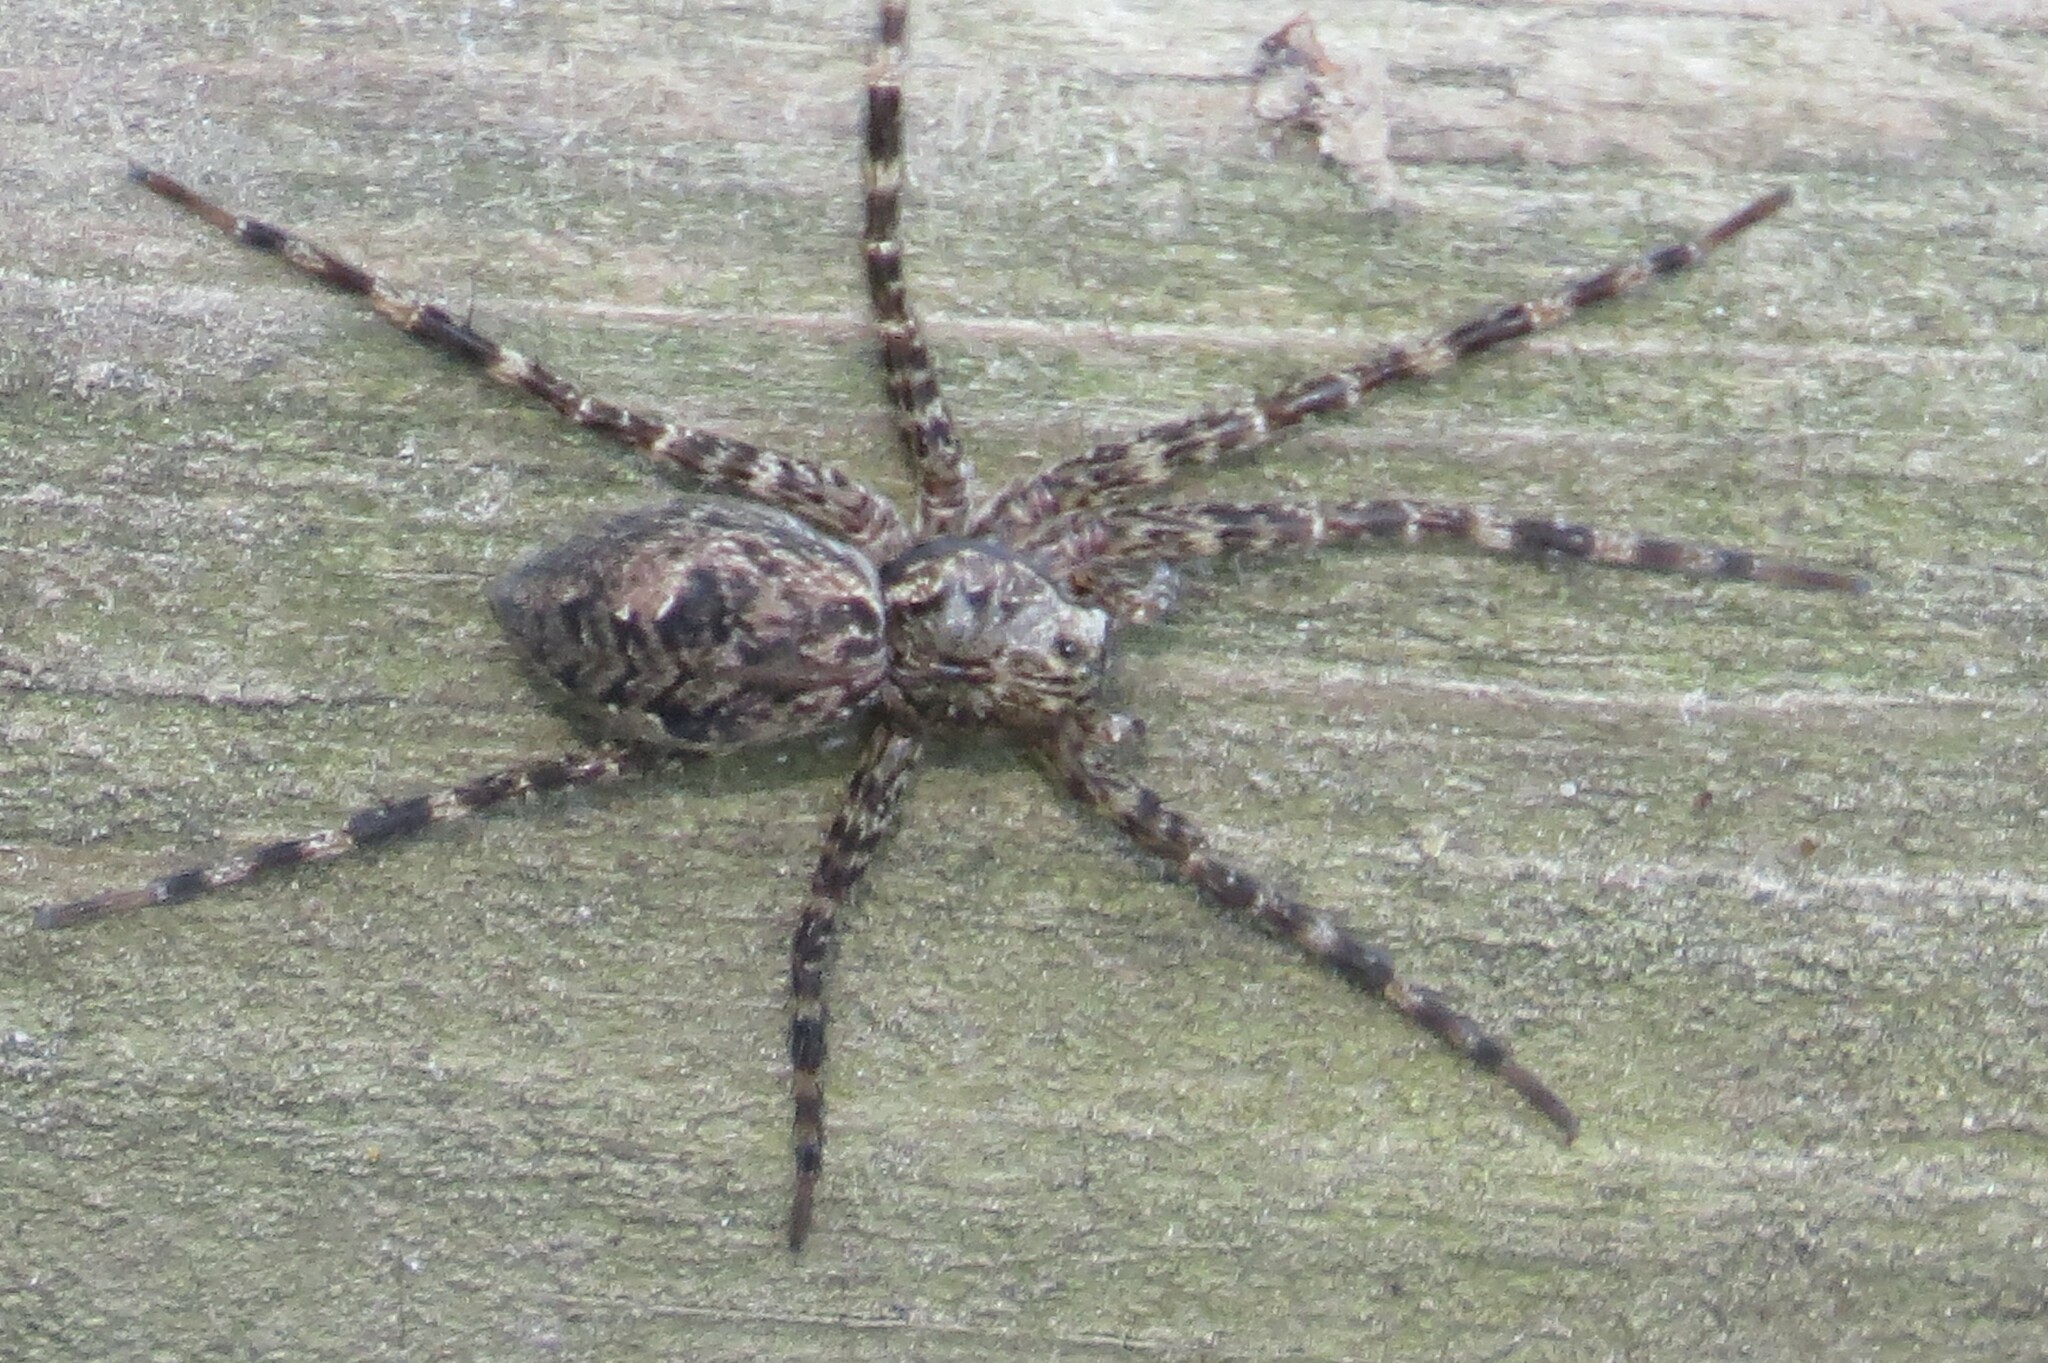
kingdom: Animalia
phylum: Arthropoda
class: Arachnida
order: Araneae
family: Pisauridae
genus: Dolomedes
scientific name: Dolomedes tenebrosus
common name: Dark fishing spider
